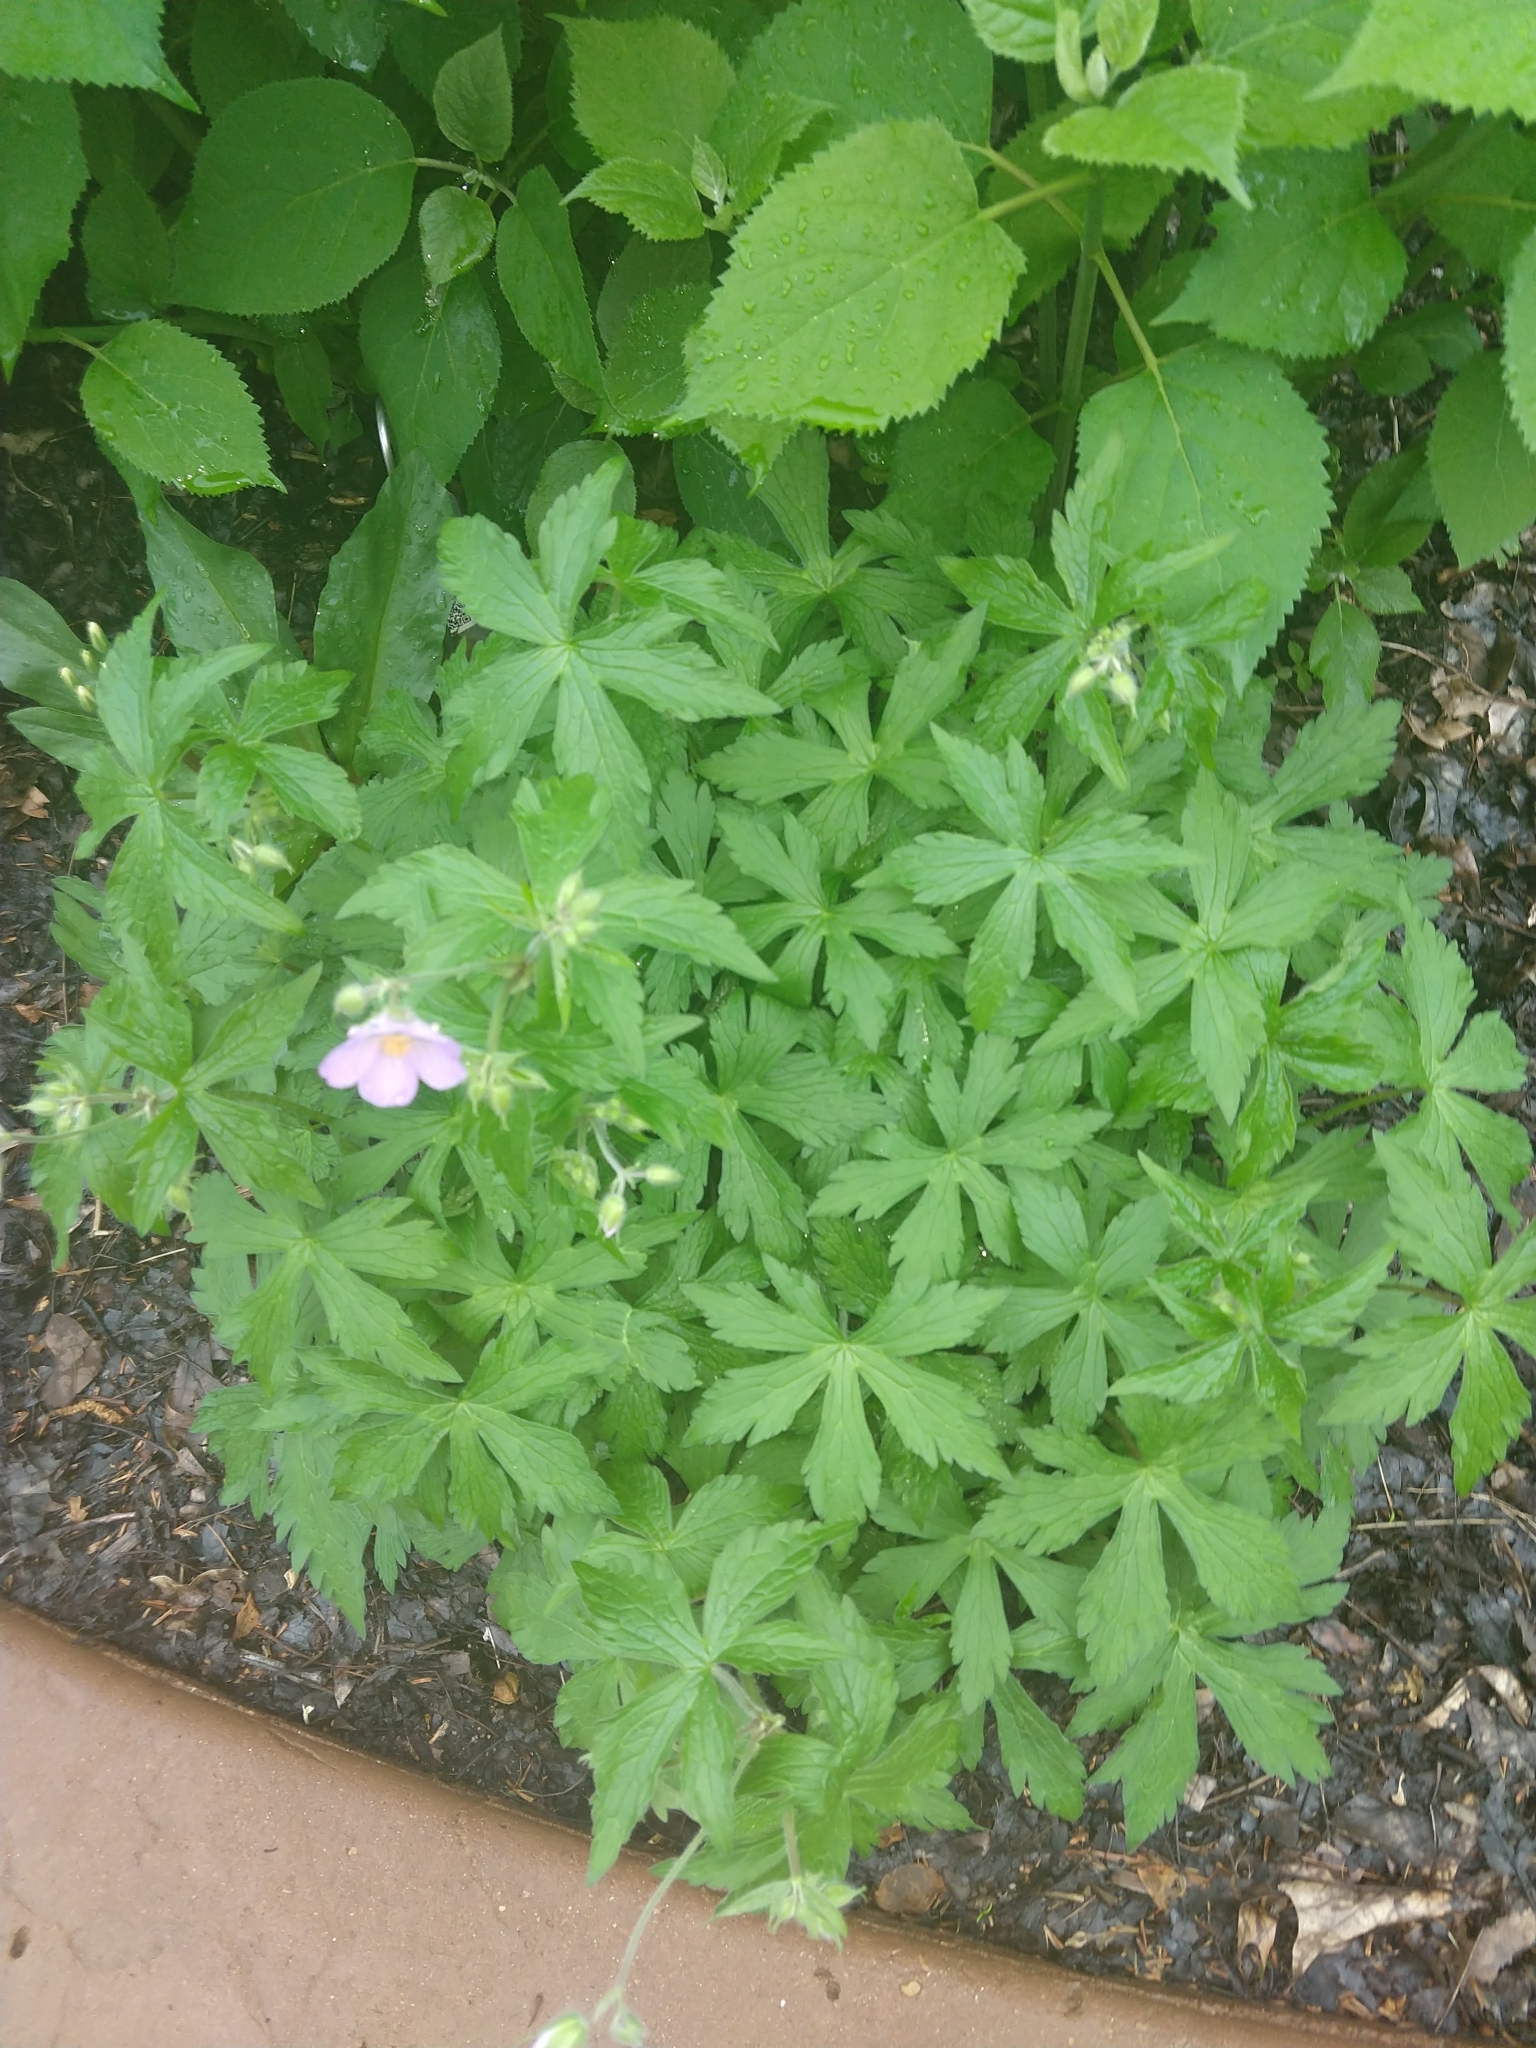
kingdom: Plantae
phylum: Tracheophyta
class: Magnoliopsida
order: Geraniales
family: Geraniaceae
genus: Geranium
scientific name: Geranium maculatum
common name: Spotted geranium
